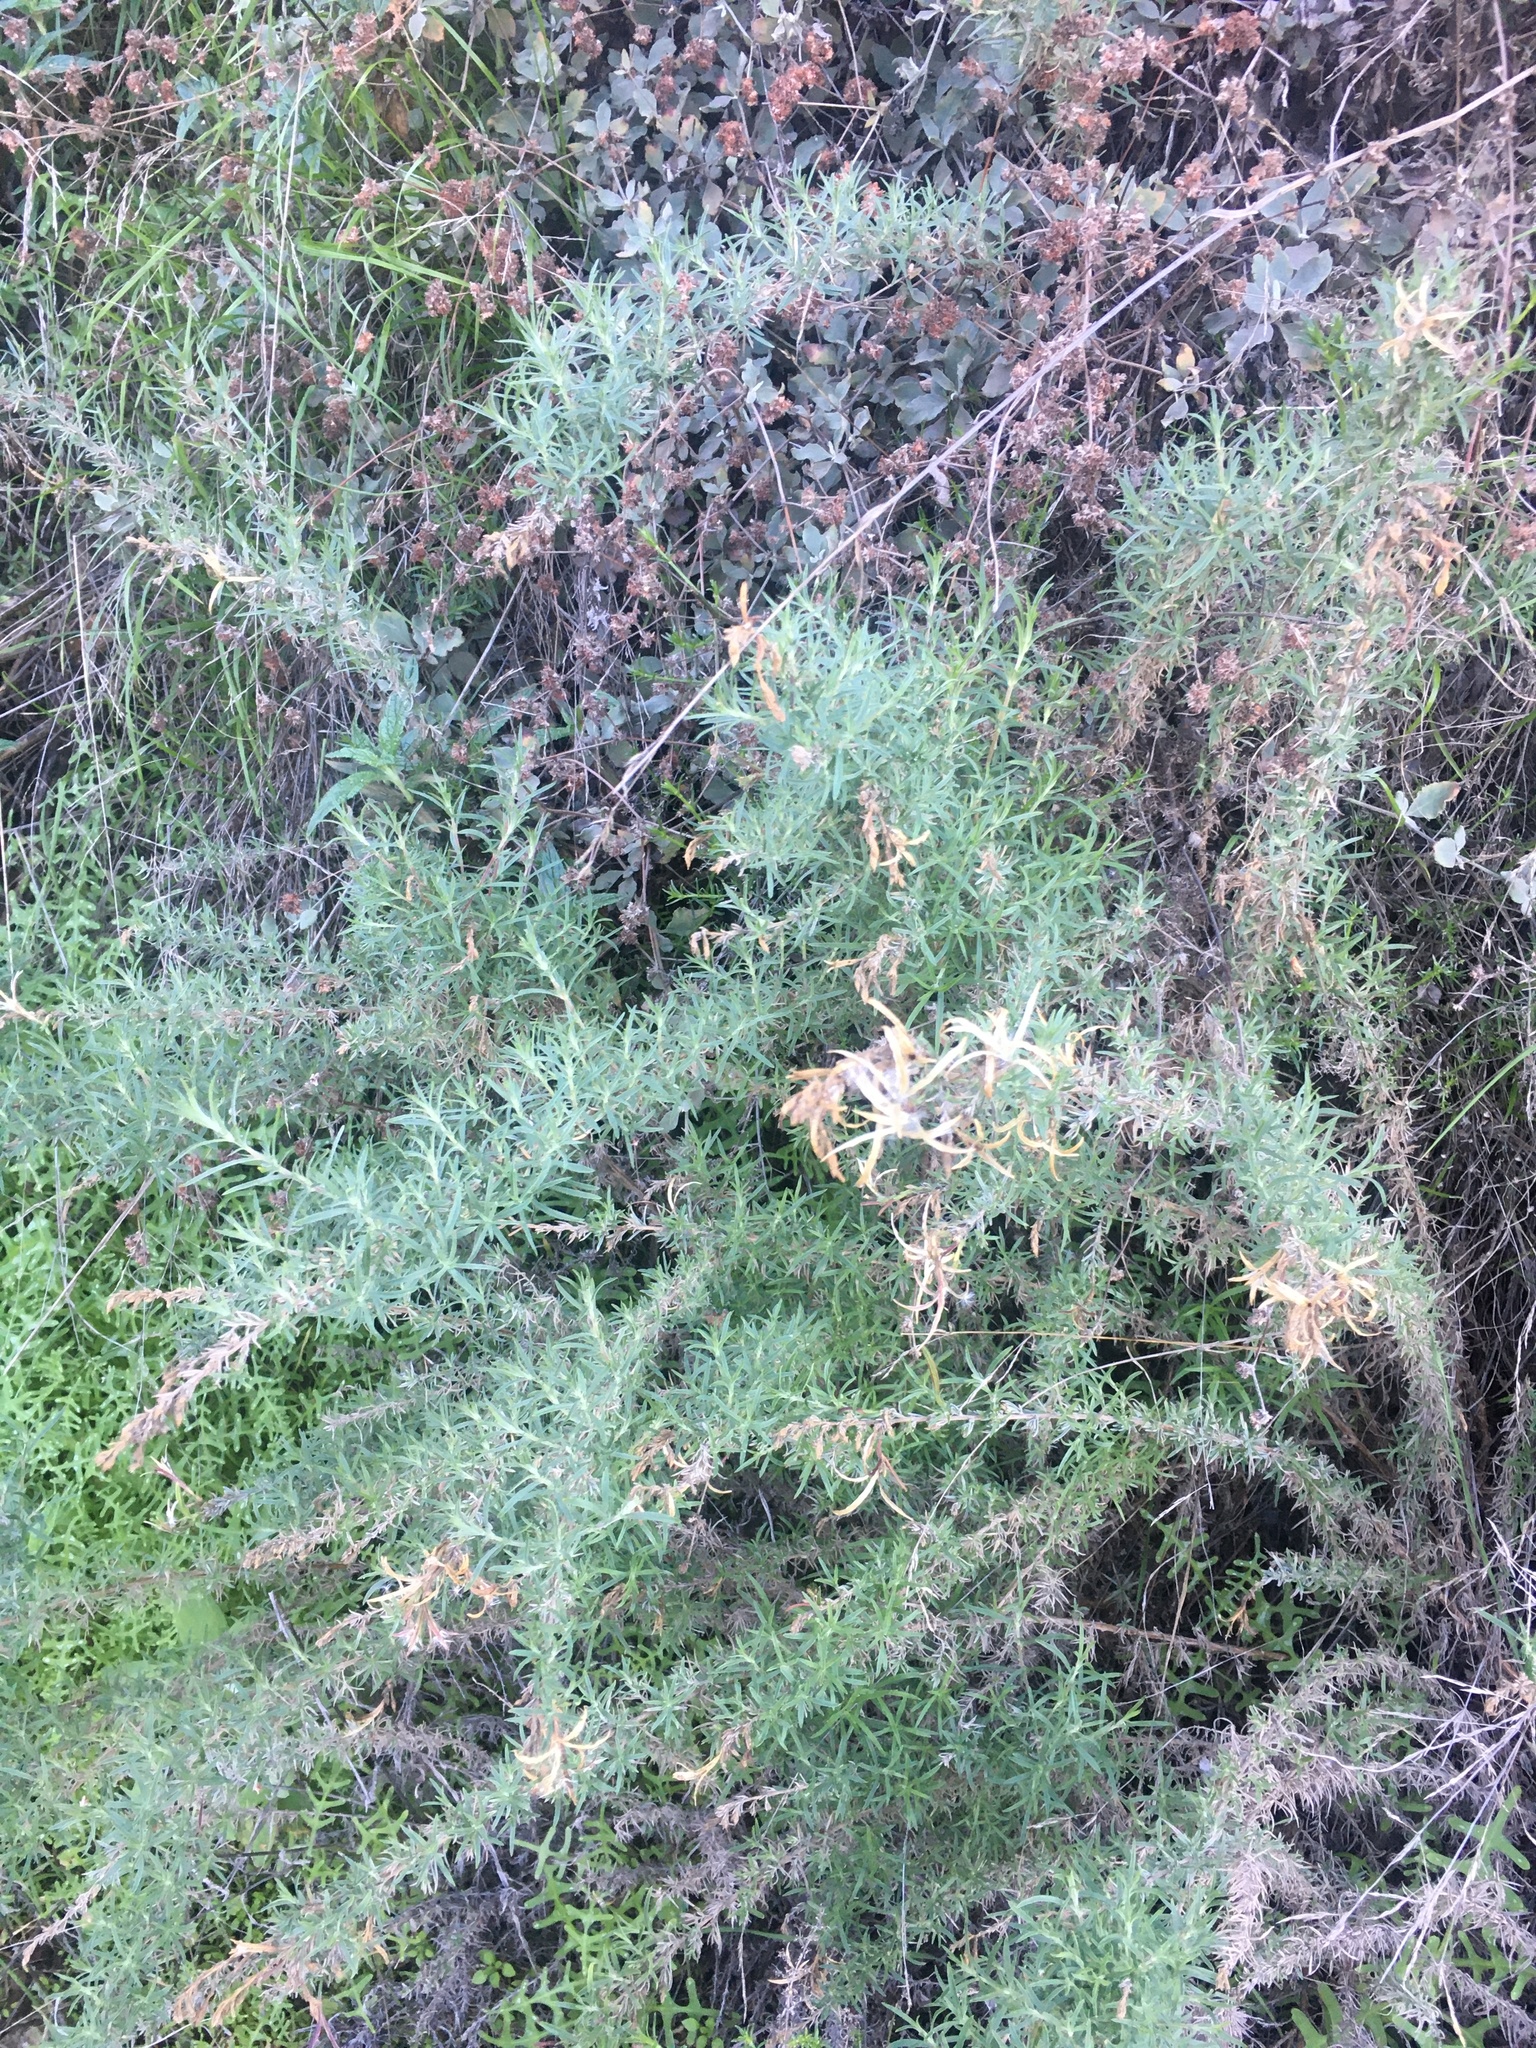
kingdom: Plantae
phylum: Tracheophyta
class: Magnoliopsida
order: Myrtales
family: Onagraceae
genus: Epilobium
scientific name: Epilobium canum
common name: California-fuchsia
